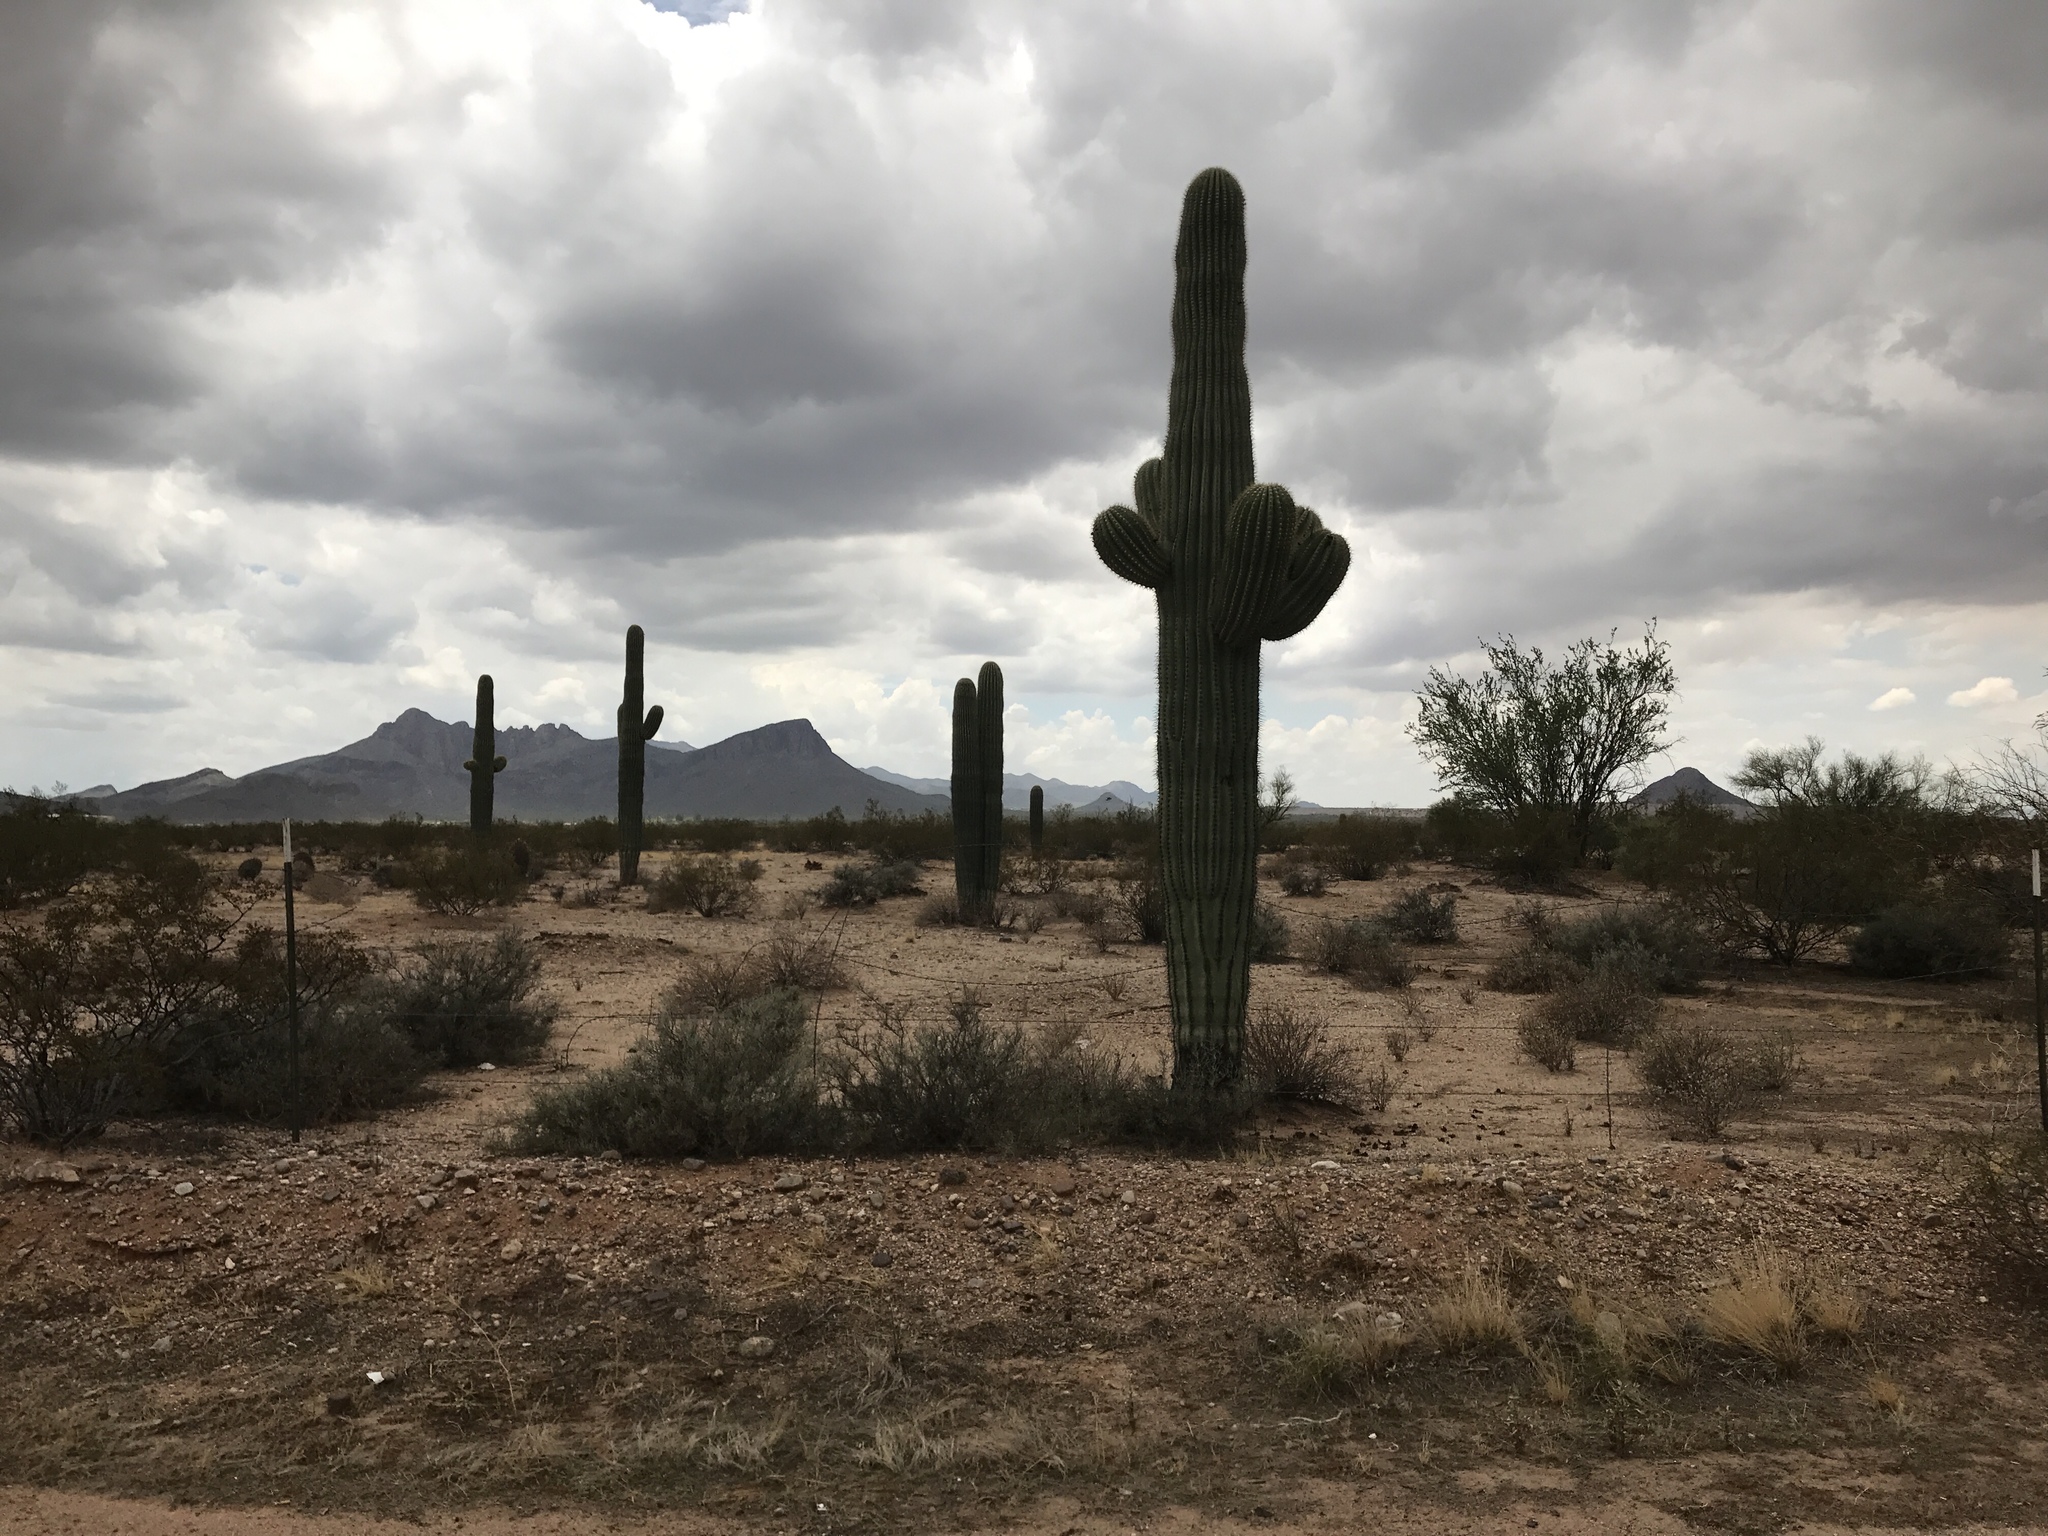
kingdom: Plantae
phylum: Tracheophyta
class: Magnoliopsida
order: Caryophyllales
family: Cactaceae
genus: Carnegiea
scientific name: Carnegiea gigantea
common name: Saguaro
